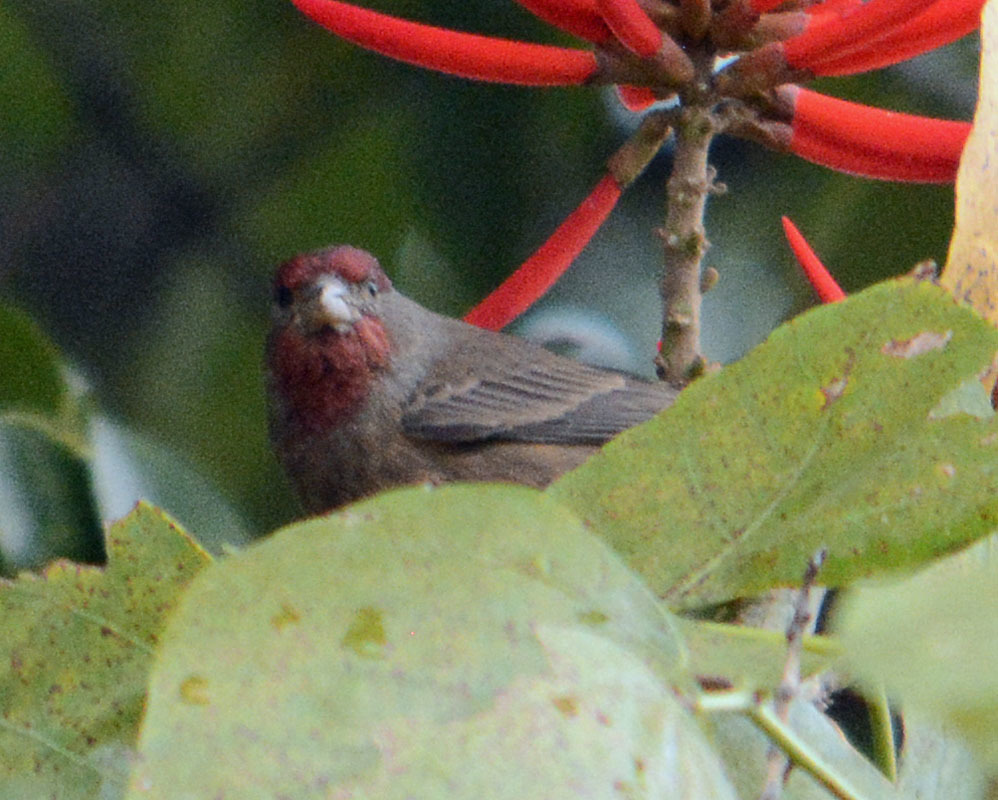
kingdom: Animalia
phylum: Chordata
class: Aves
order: Passeriformes
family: Fringillidae
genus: Haemorhous
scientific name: Haemorhous mexicanus
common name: House finch
